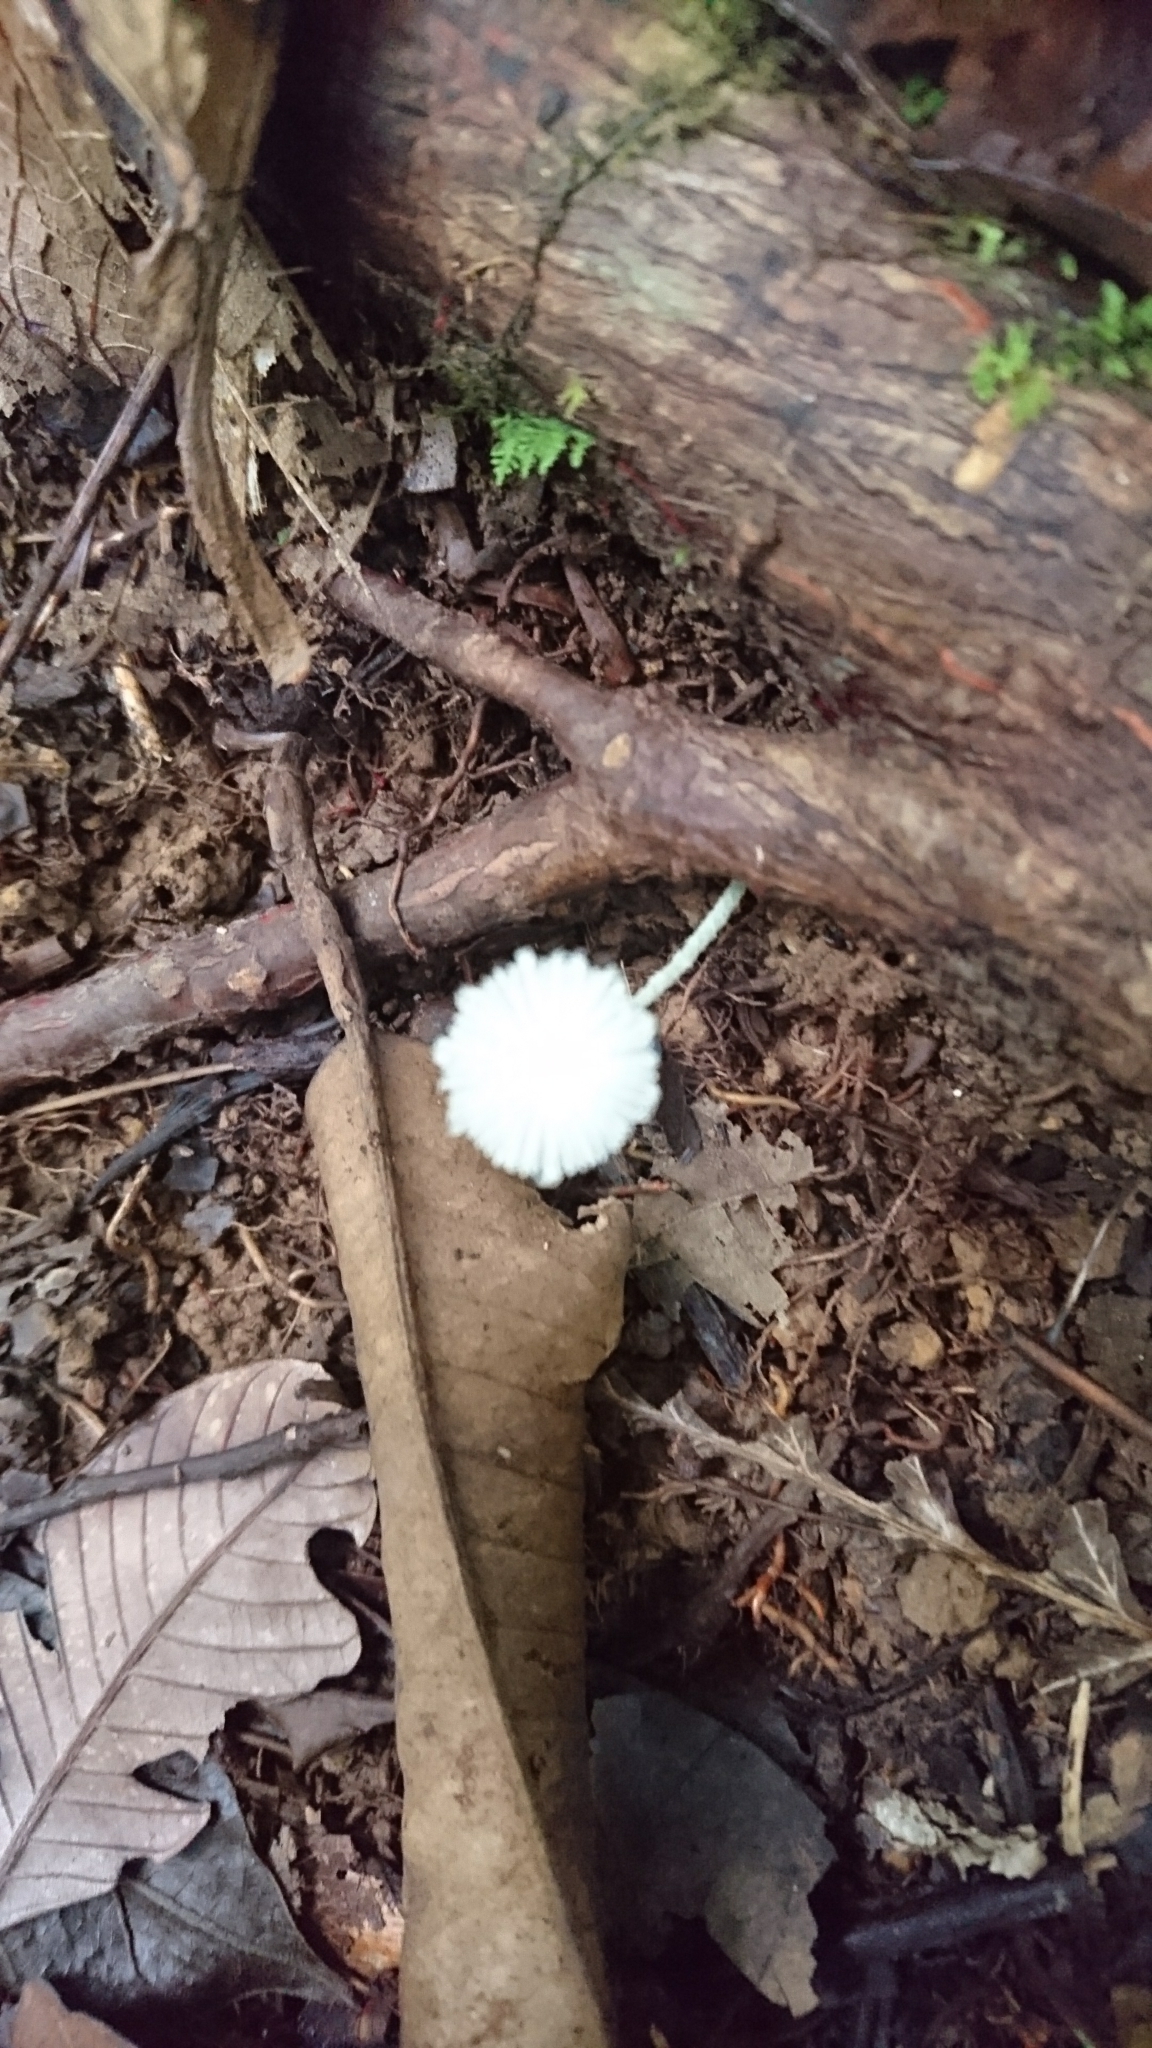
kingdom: Fungi
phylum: Basidiomycota
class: Agaricomycetes
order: Agaricales
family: Agaricaceae
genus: Leucocoprinus
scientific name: Leucocoprinus fragilissimus
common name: Fragile dapperling
